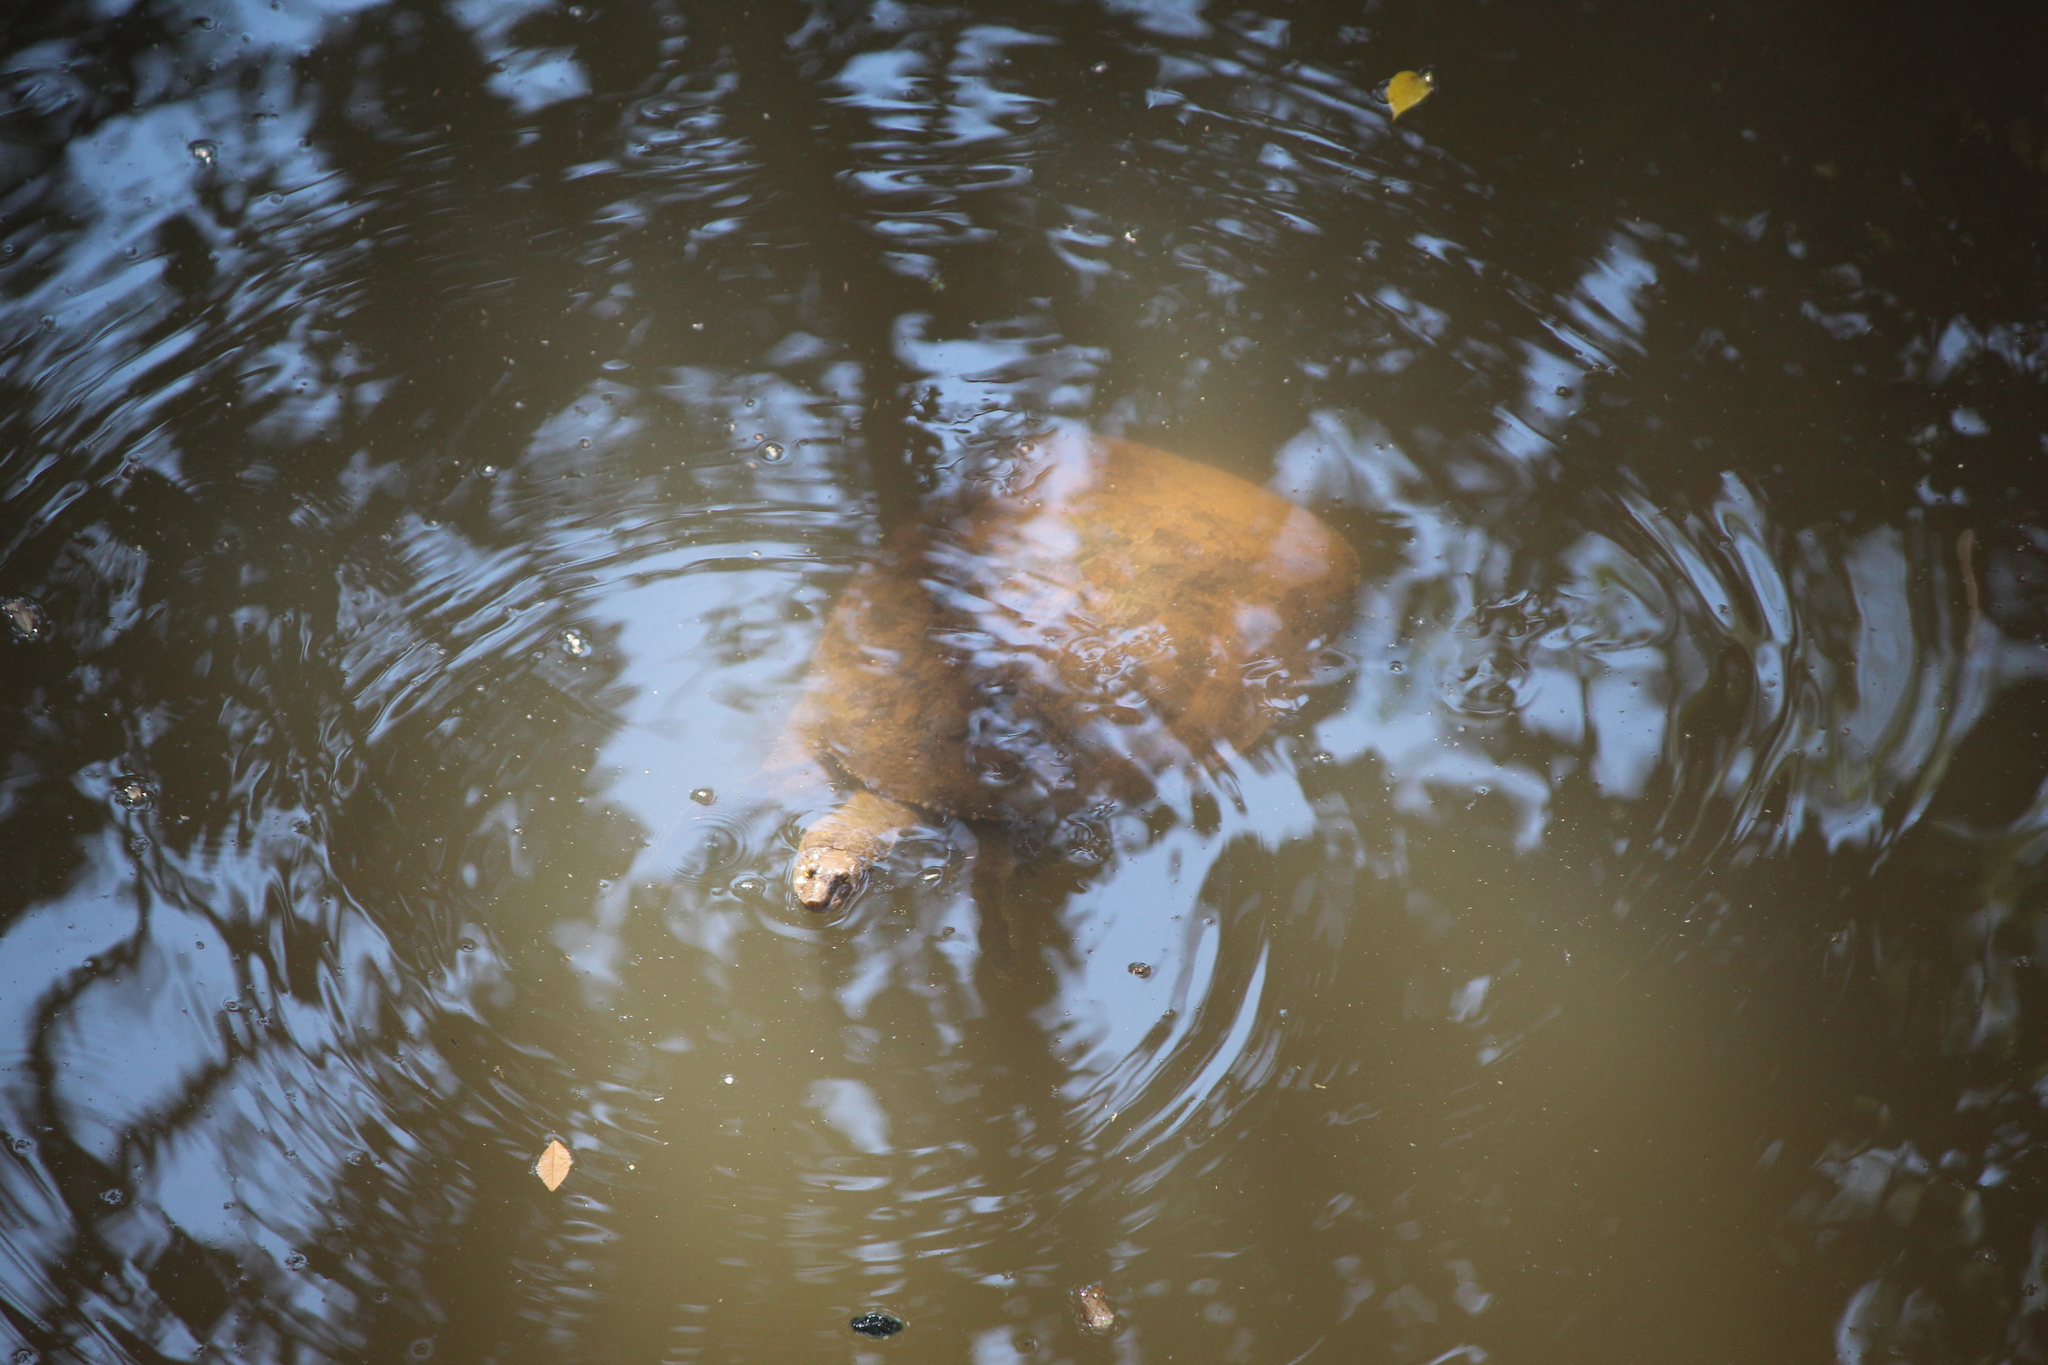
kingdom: Animalia
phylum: Chordata
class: Testudines
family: Trionychidae
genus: Apalone
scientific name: Apalone spinifera
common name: Spiny softshell turtle
